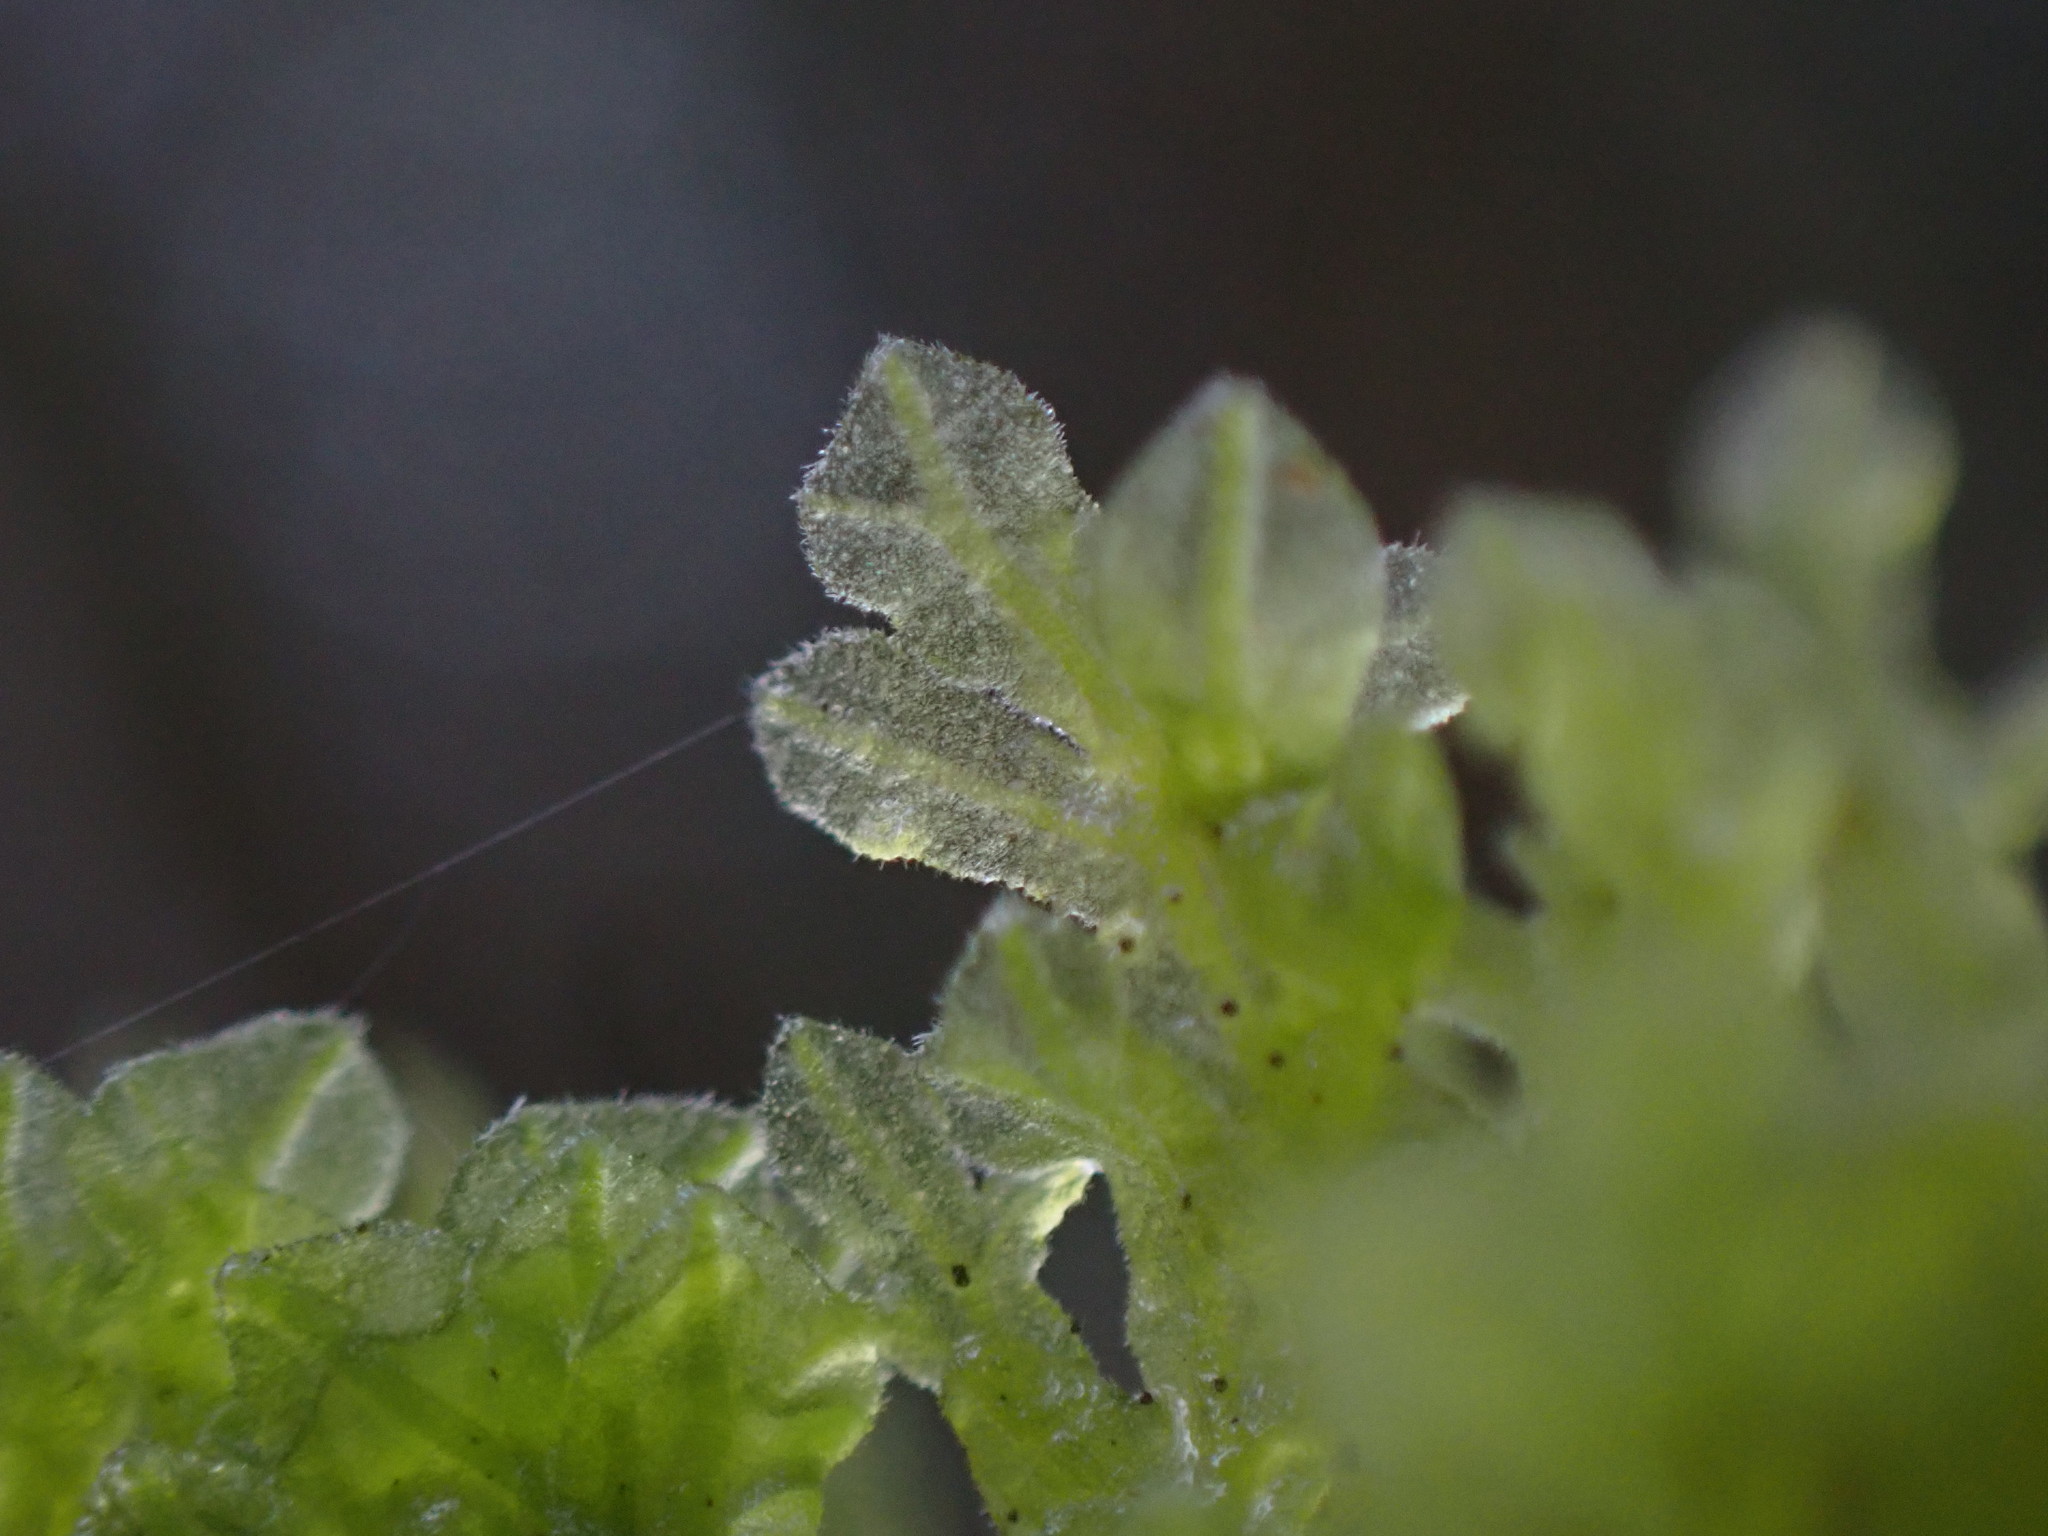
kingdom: Plantae
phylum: Marchantiophyta
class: Jungermanniopsida
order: Metzgeriales
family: Metzgeriaceae
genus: Metzgeria
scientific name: Metzgeria pubescens
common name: Downy veilwort
